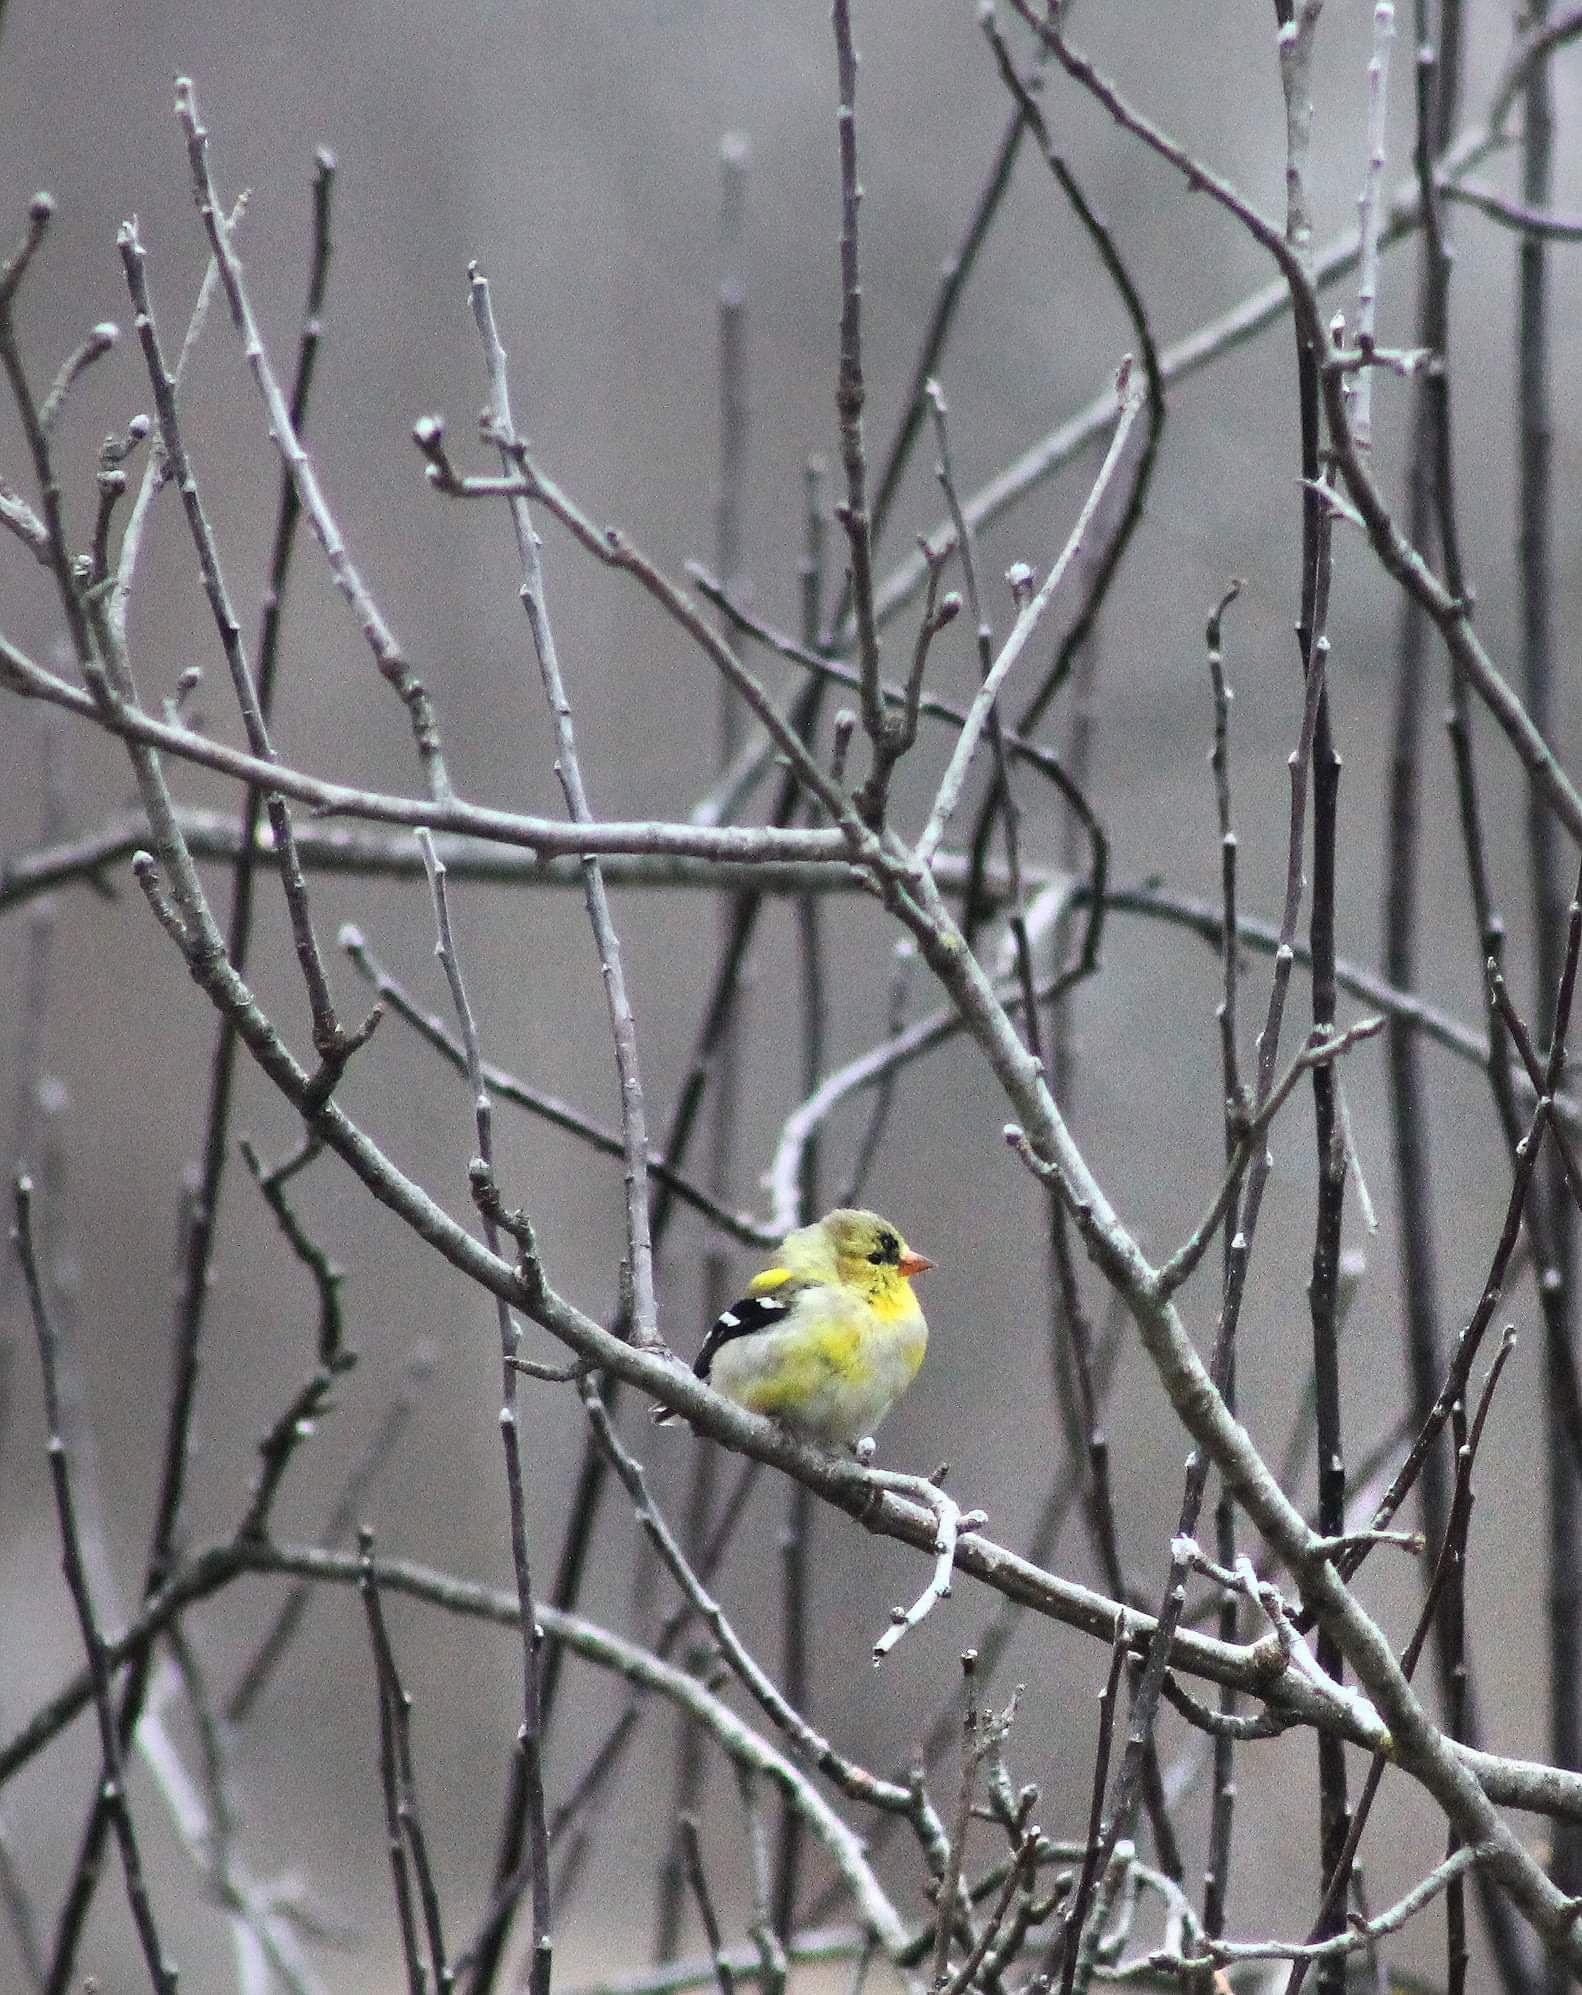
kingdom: Animalia
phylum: Chordata
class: Aves
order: Passeriformes
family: Fringillidae
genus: Spinus
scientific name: Spinus tristis
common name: American goldfinch
